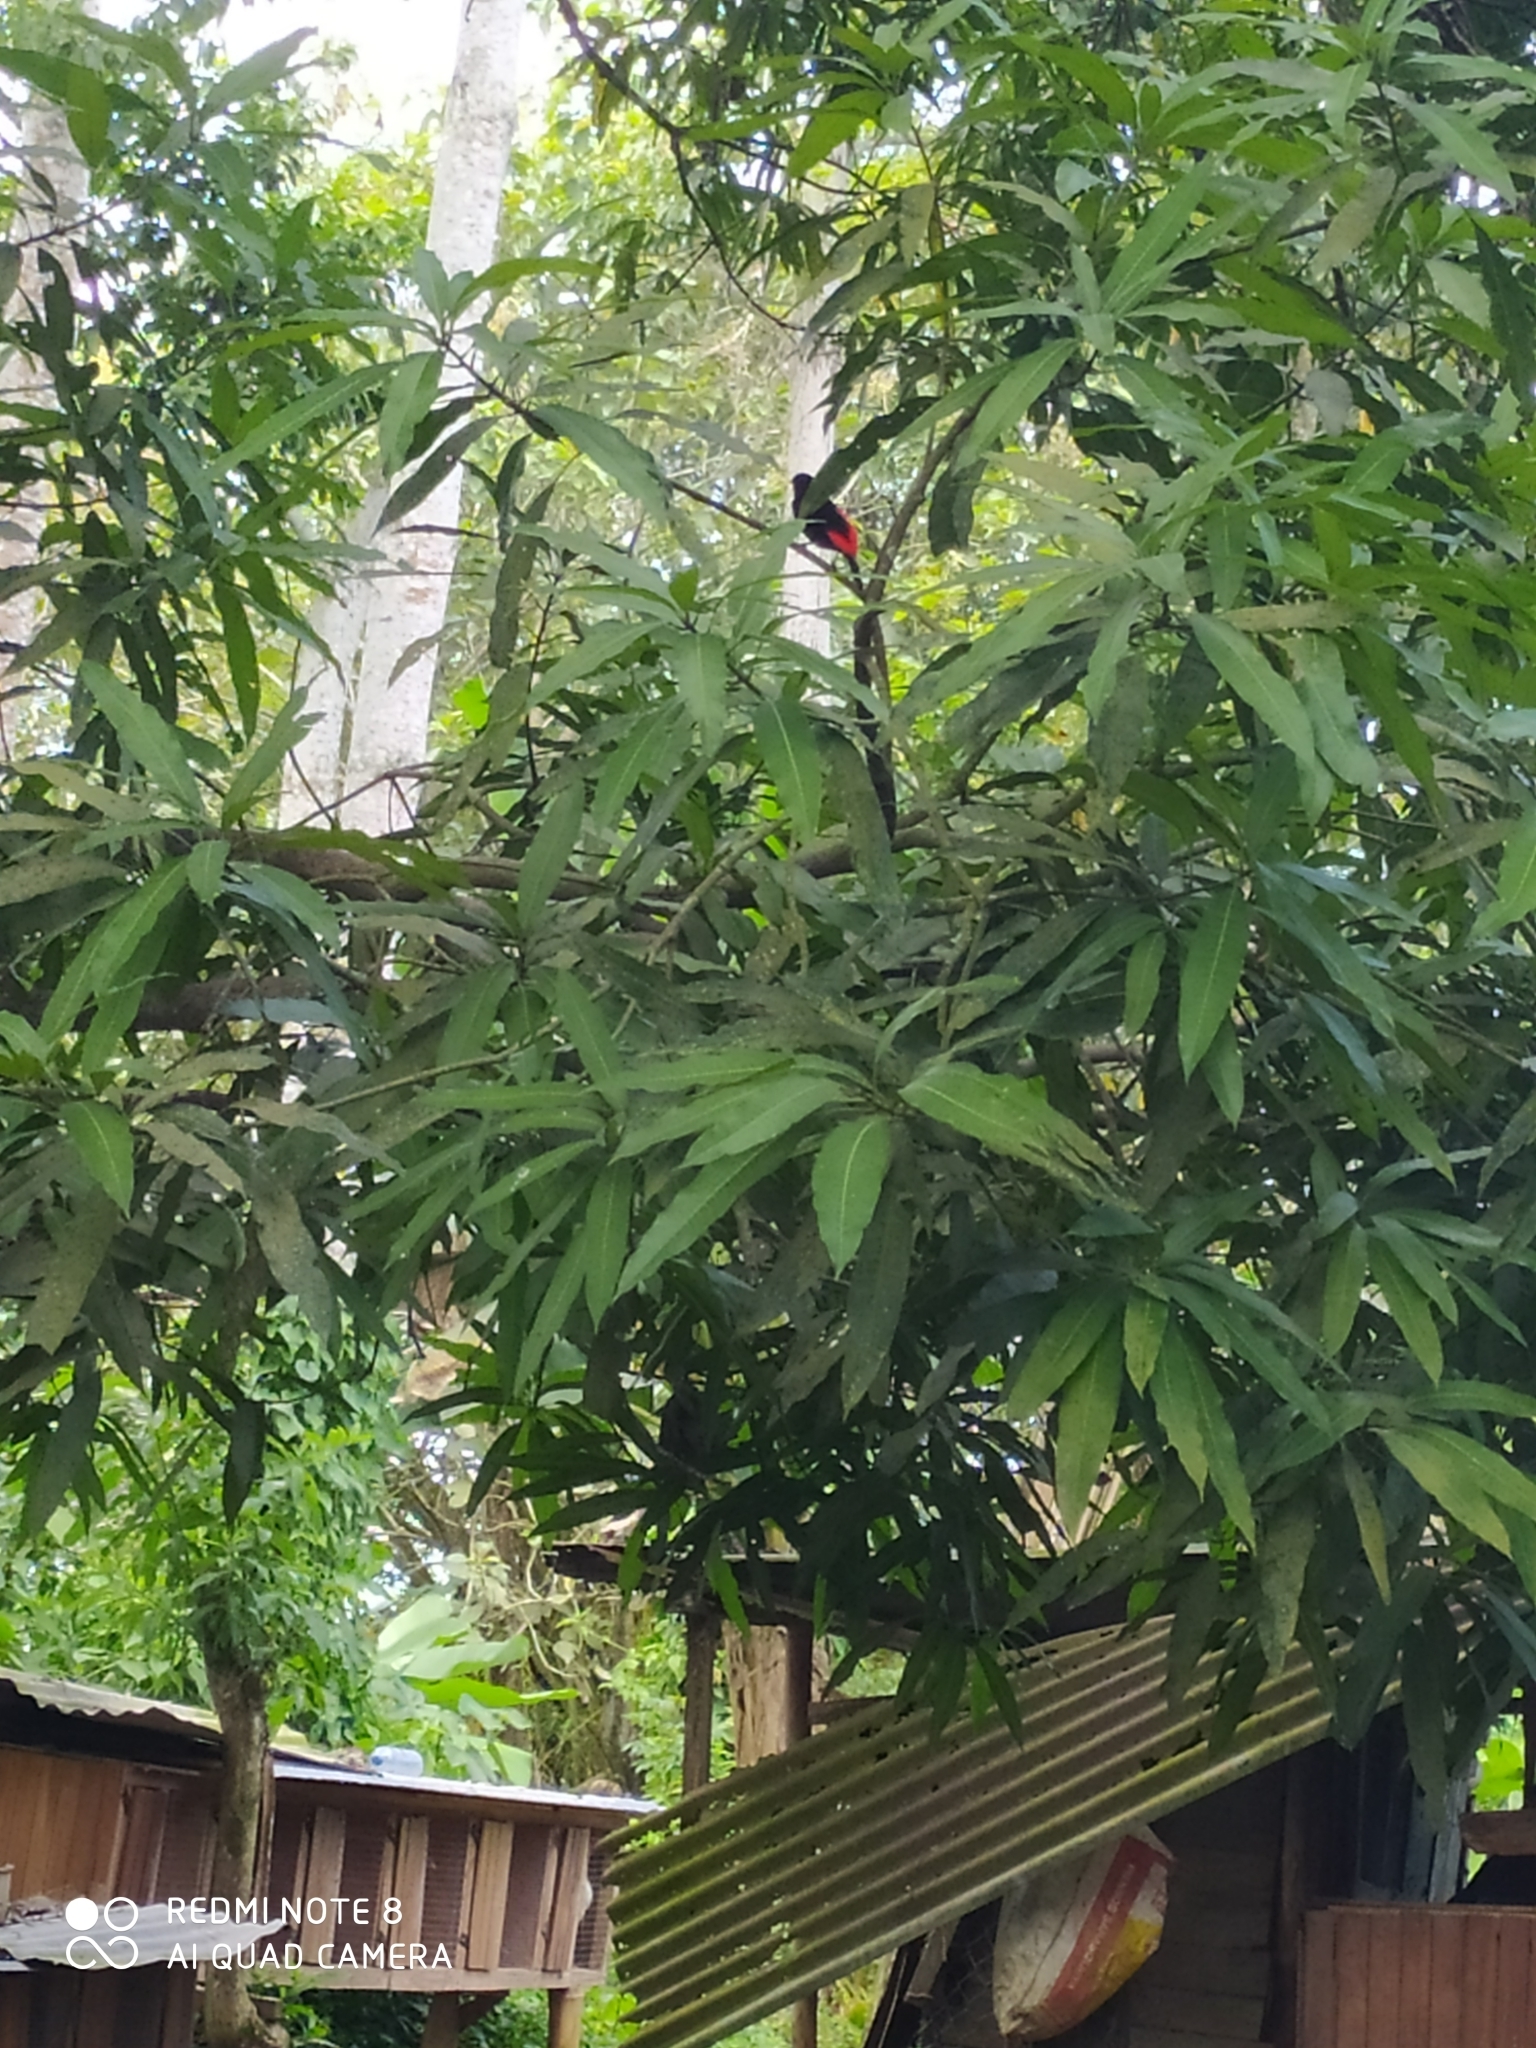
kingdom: Animalia
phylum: Chordata
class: Aves
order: Passeriformes
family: Thraupidae
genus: Ramphocelus
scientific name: Ramphocelus passerinii
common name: Passerini's tanager
